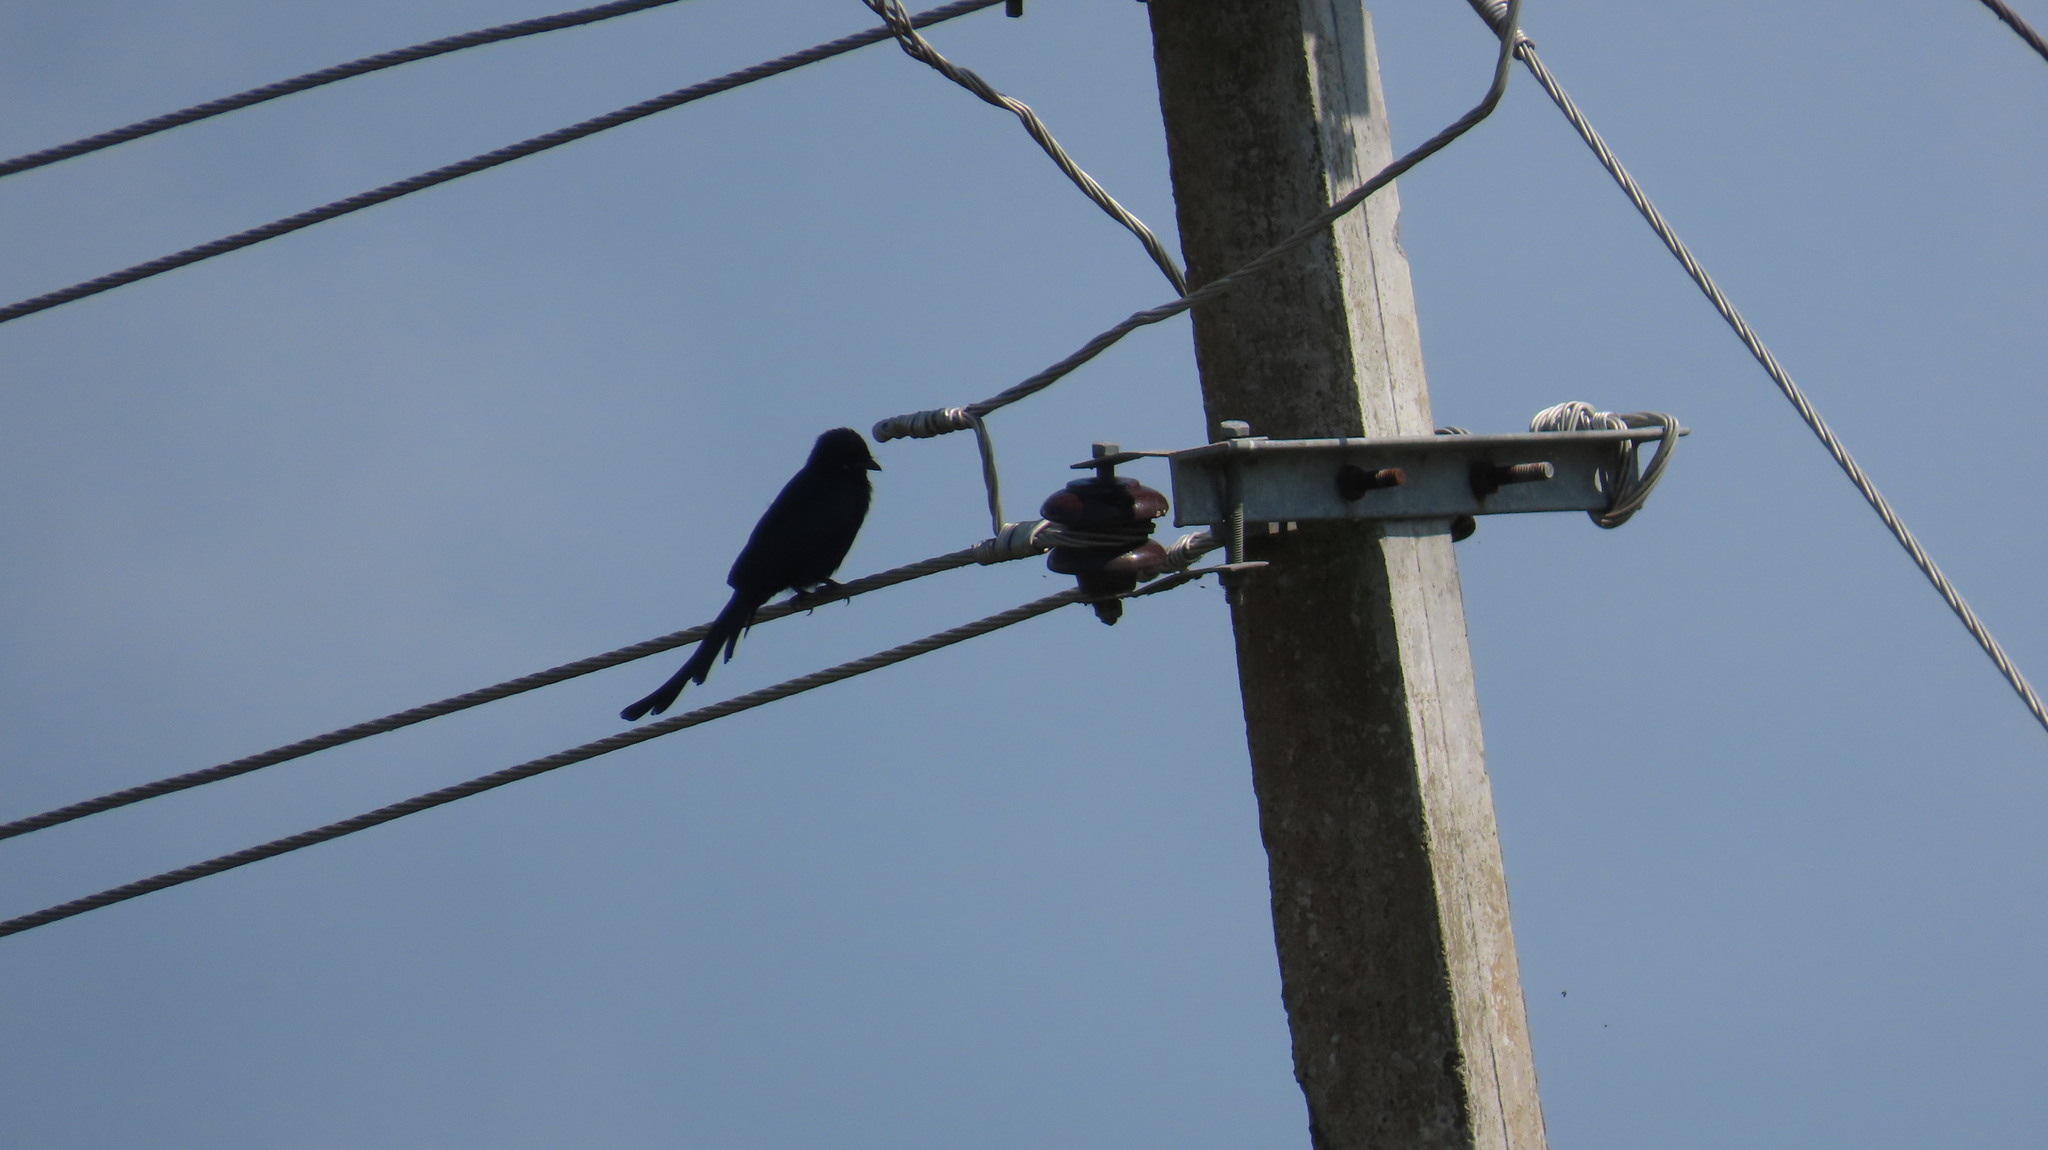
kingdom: Animalia
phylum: Chordata
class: Aves
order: Passeriformes
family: Dicruridae
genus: Dicrurus
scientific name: Dicrurus macrocercus
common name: Black drongo
